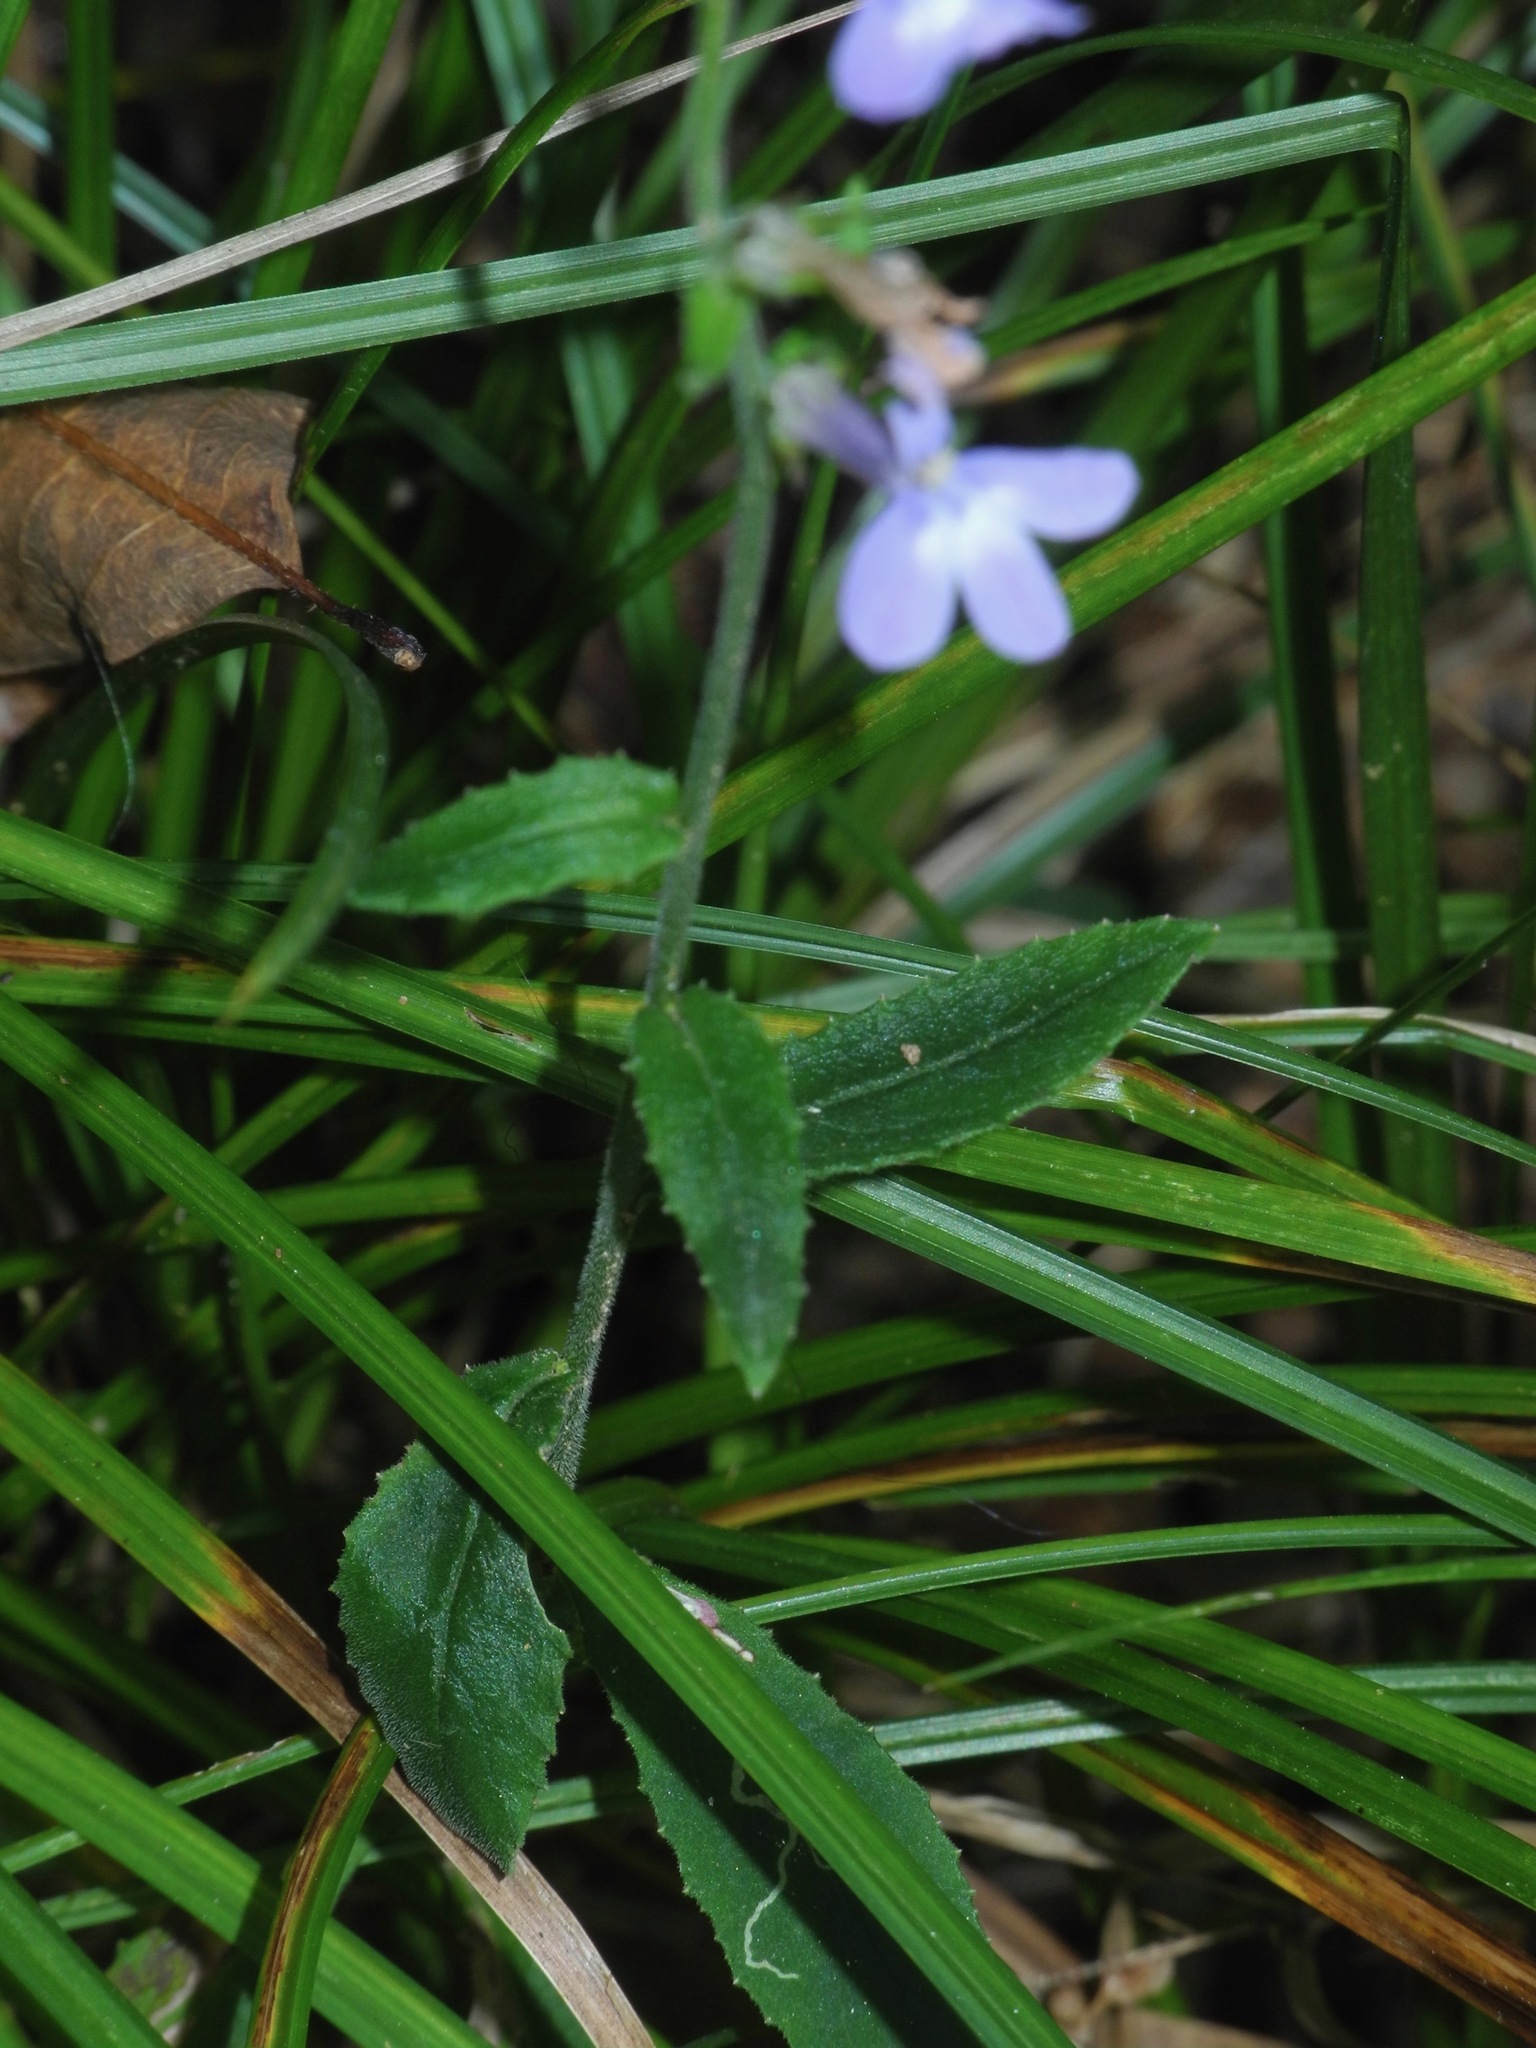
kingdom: Plantae
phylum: Tracheophyta
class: Magnoliopsida
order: Asterales
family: Campanulaceae
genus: Lobelia
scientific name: Lobelia puberula
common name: Purple dewdrop
